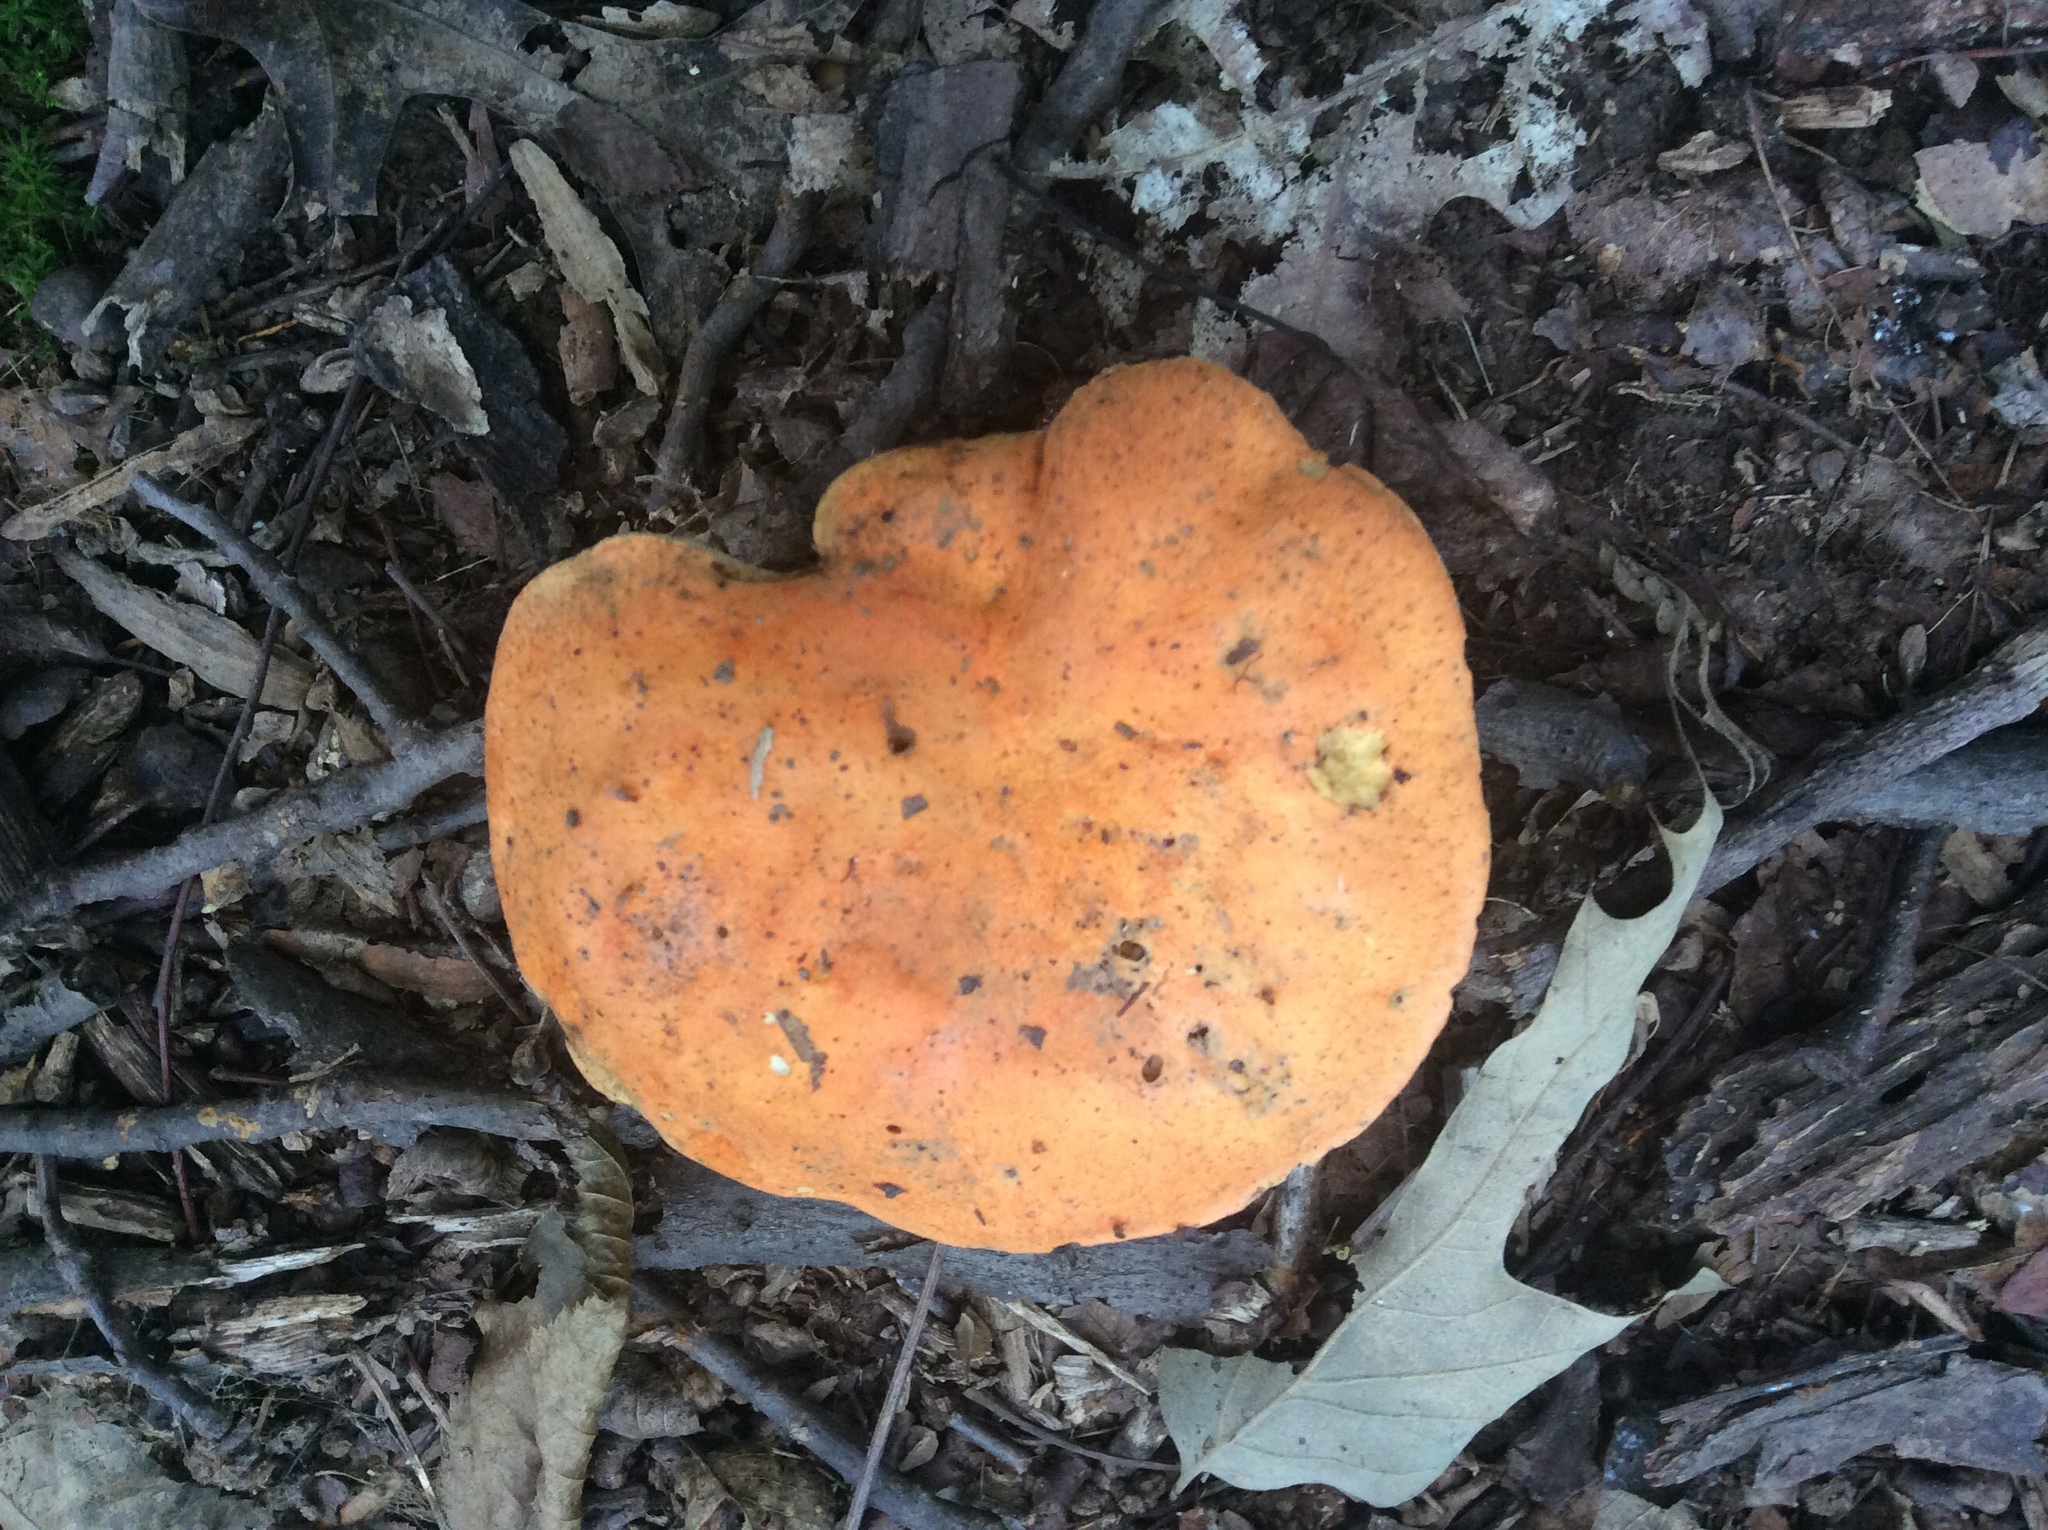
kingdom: Fungi
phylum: Basidiomycota
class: Agaricomycetes
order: Boletales
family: Boletaceae
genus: Tylopilus
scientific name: Tylopilus balloui
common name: Burnt-orange bolete
